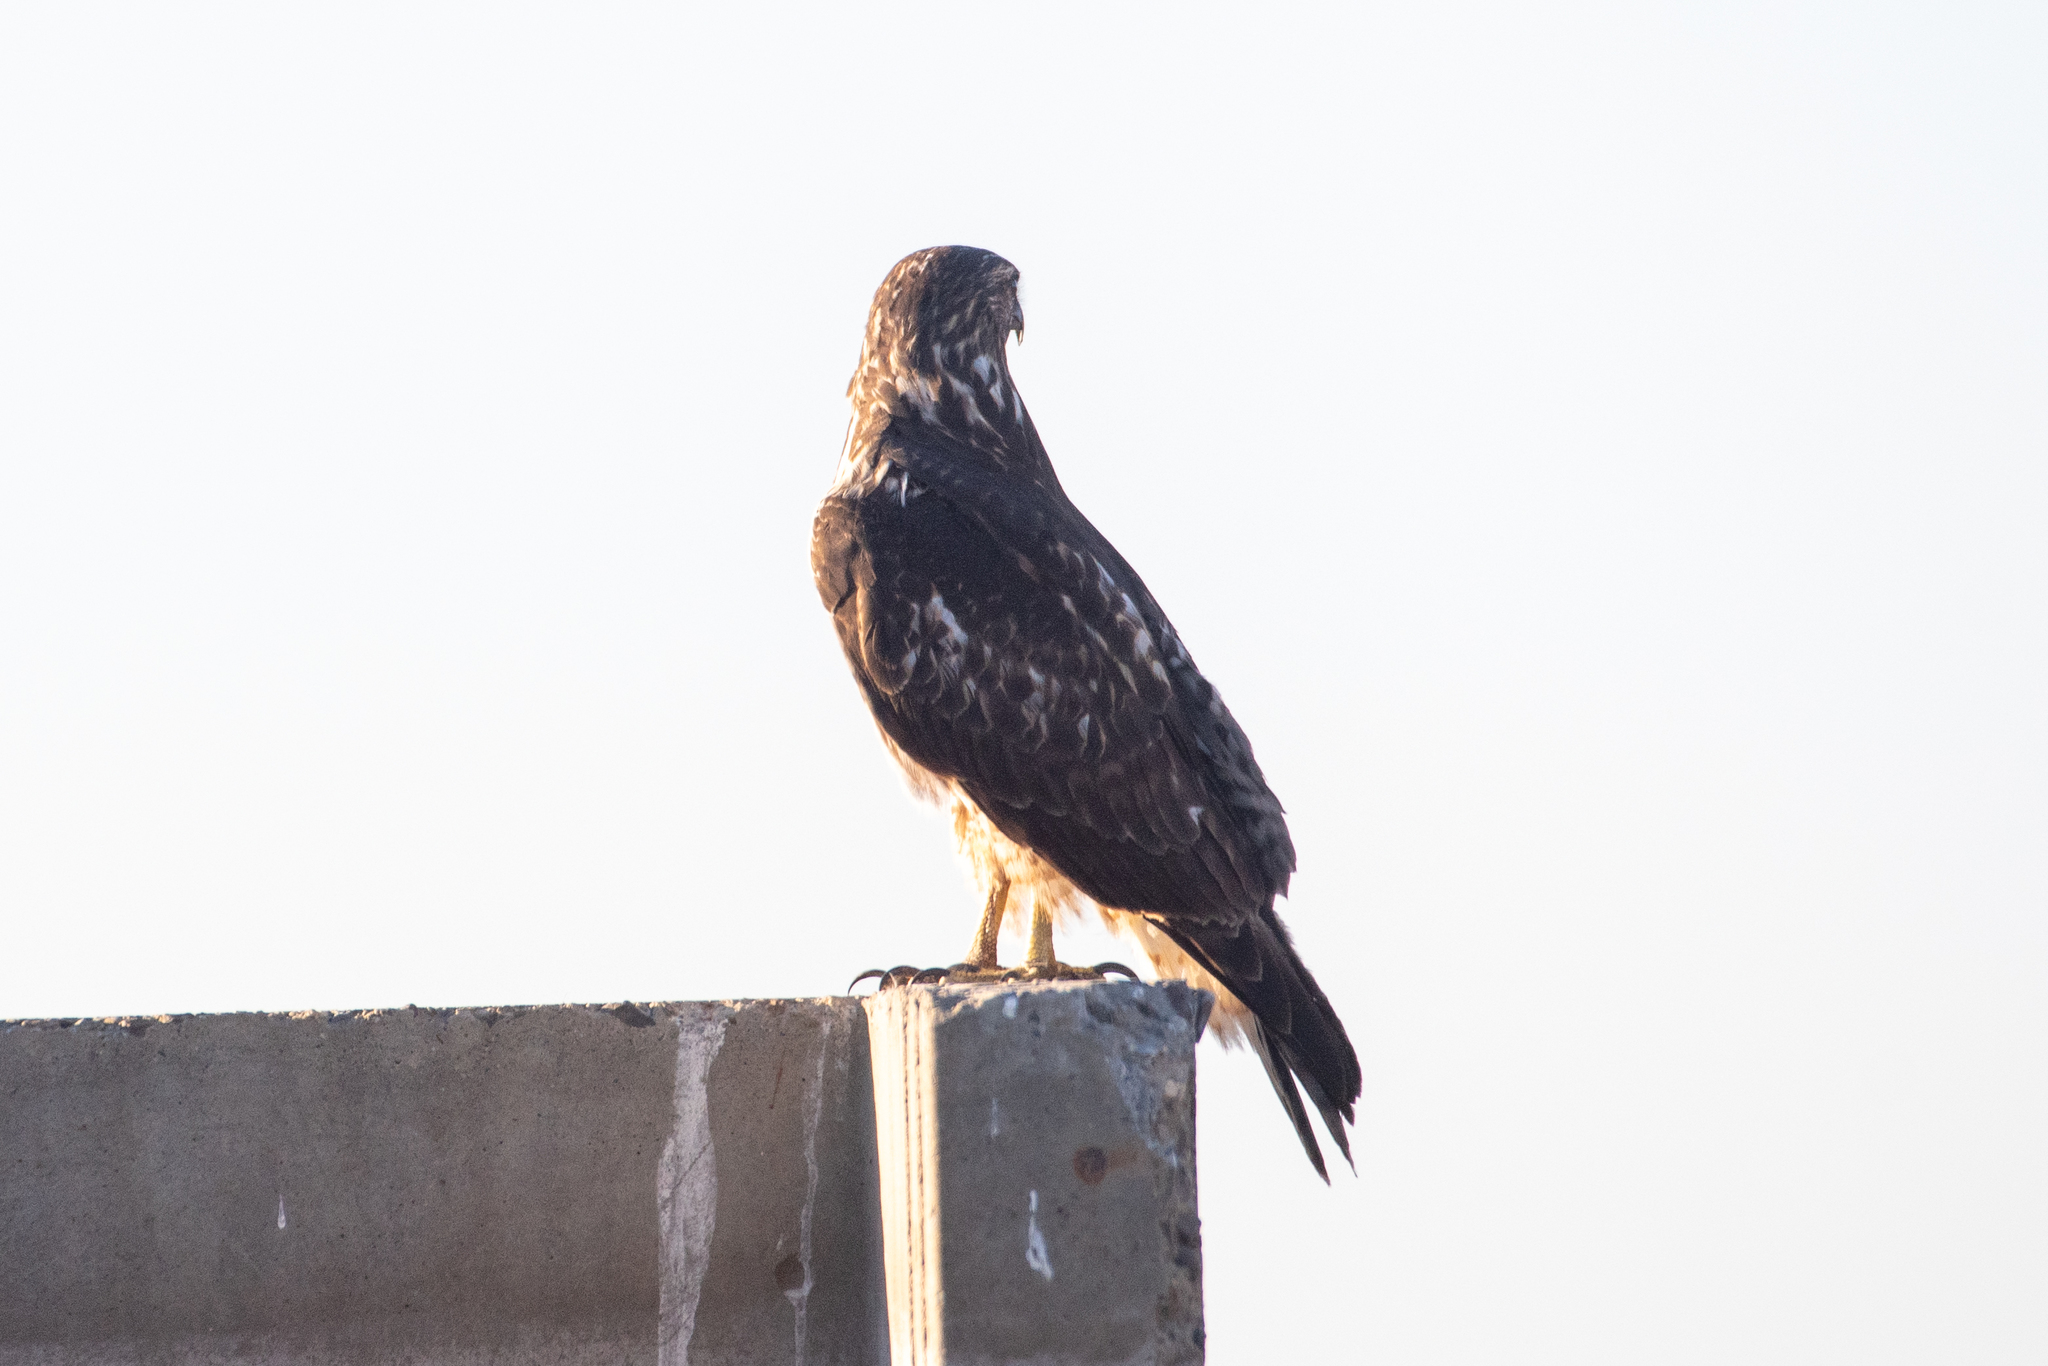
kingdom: Animalia
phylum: Chordata
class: Aves
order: Accipitriformes
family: Accipitridae
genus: Buteo
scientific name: Buteo jamaicensis
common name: Red-tailed hawk
